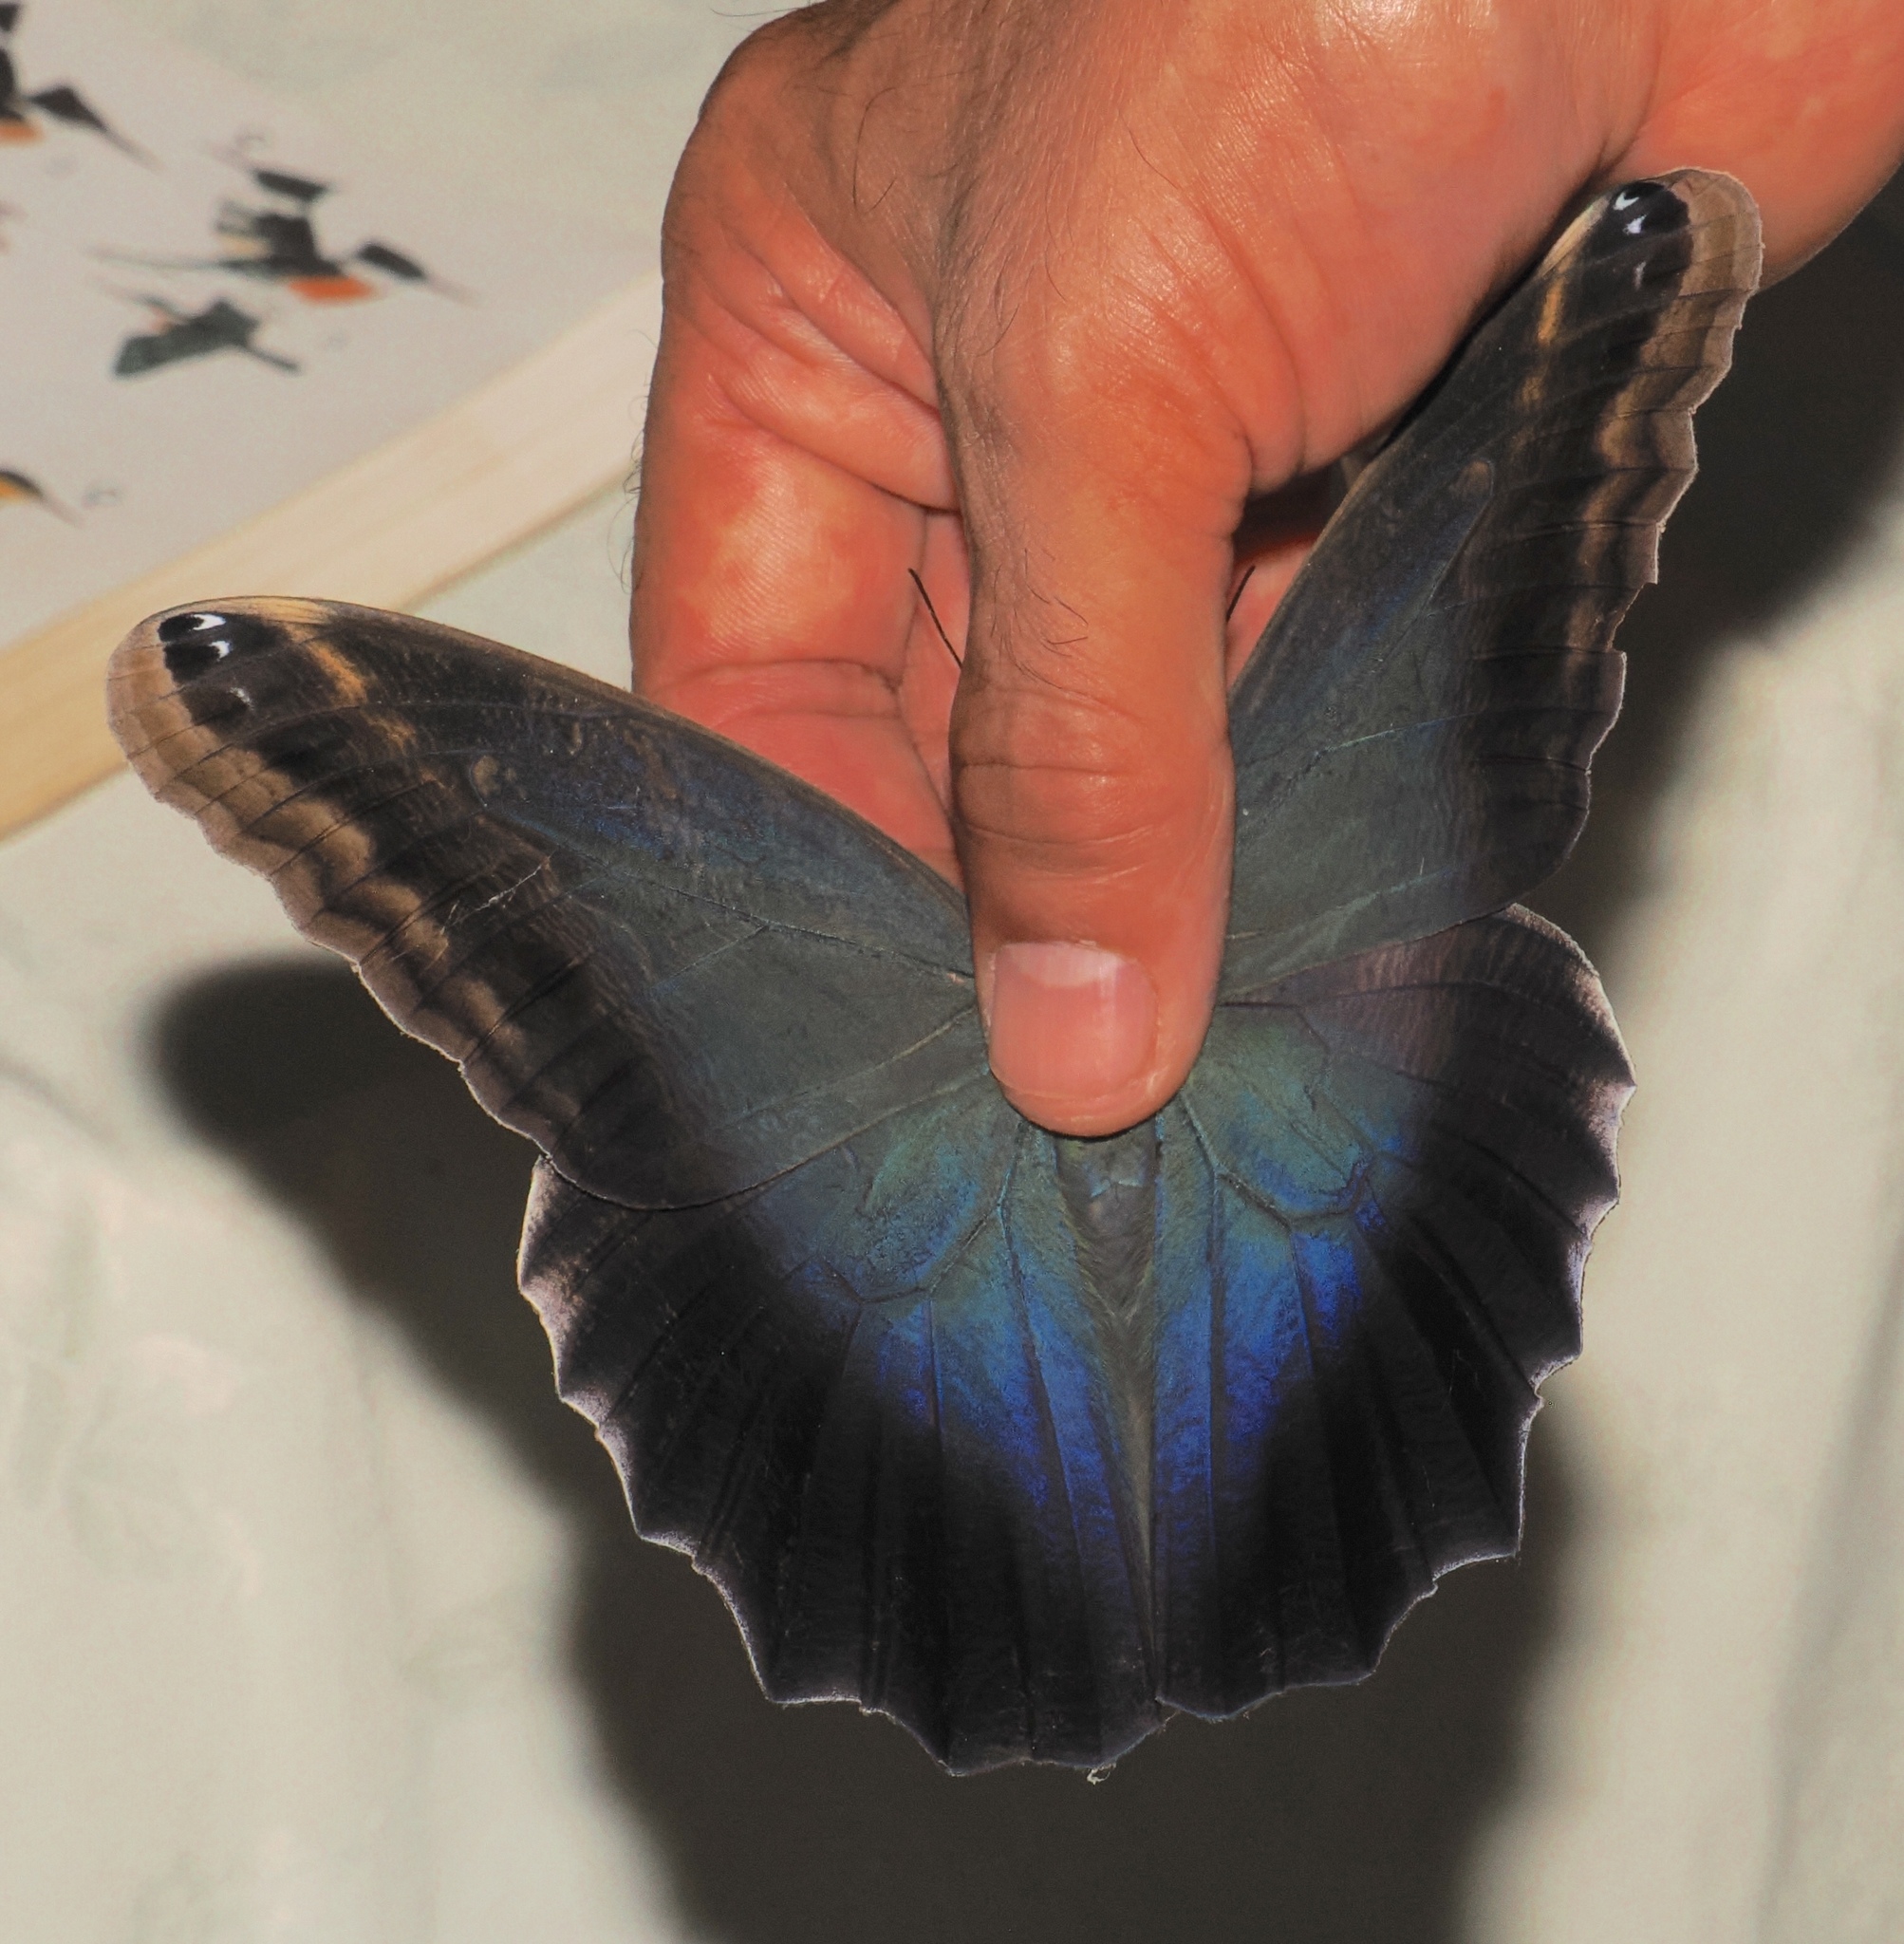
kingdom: Animalia
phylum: Arthropoda
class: Insecta
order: Lepidoptera
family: Nymphalidae
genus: Caligo
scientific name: Caligo brasiliensis
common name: Dark owl-butterfly
